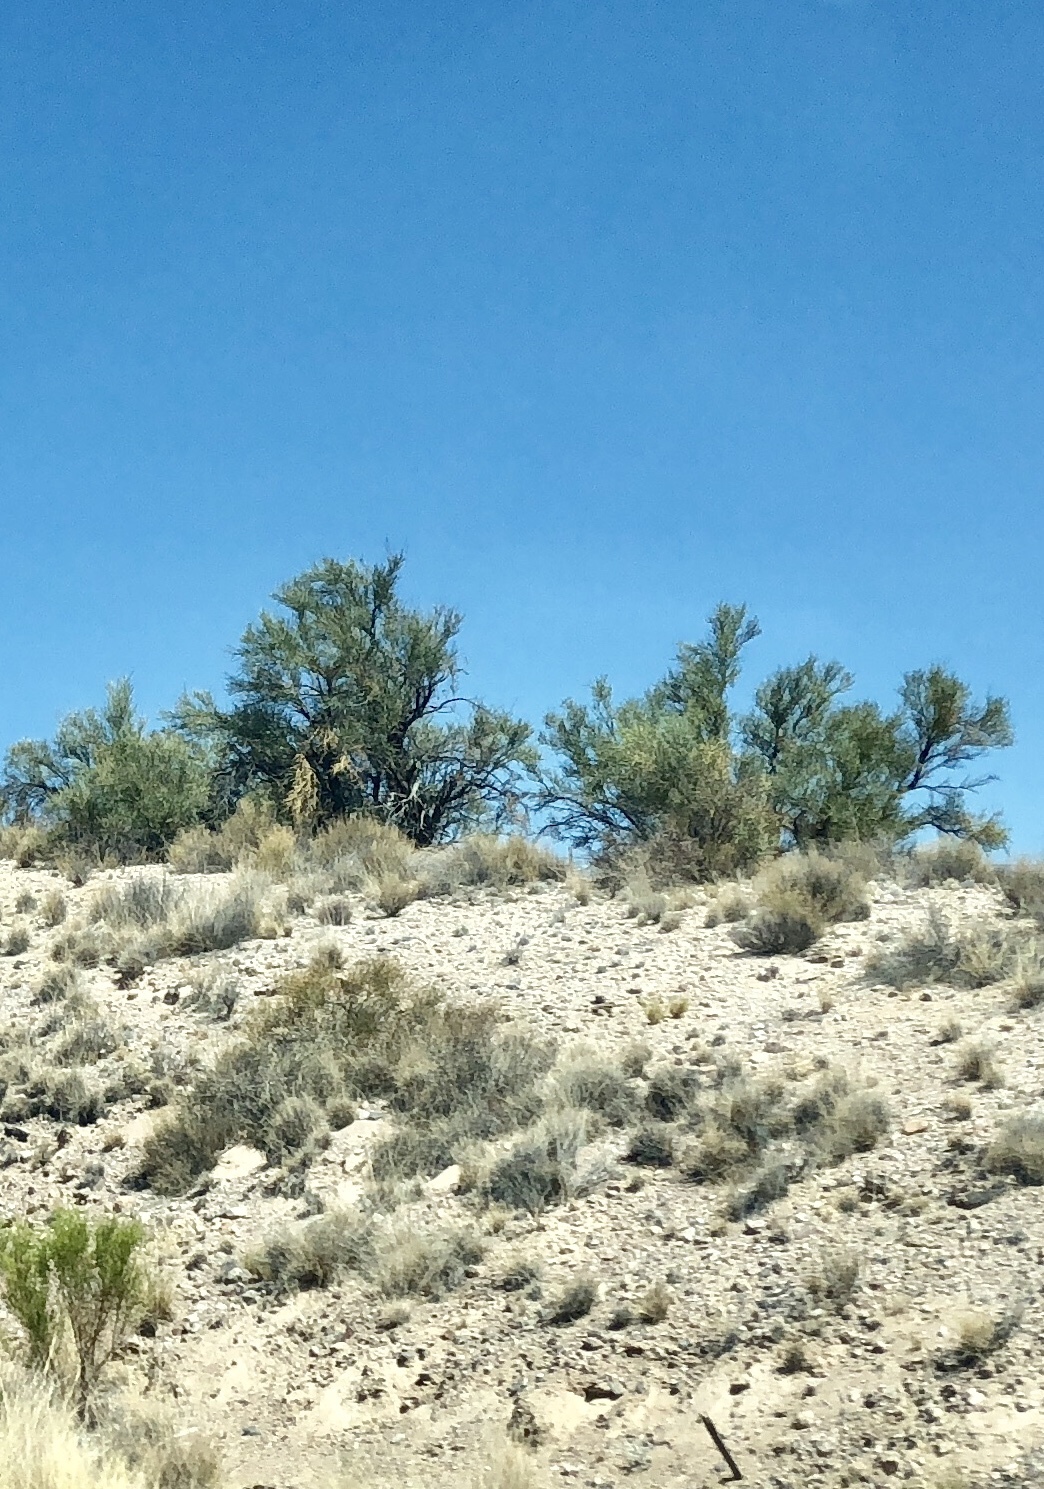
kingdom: Plantae
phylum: Tracheophyta
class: Magnoliopsida
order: Celastrales
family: Celastraceae
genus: Canotia
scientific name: Canotia holacantha
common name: Crucifixion thorns
